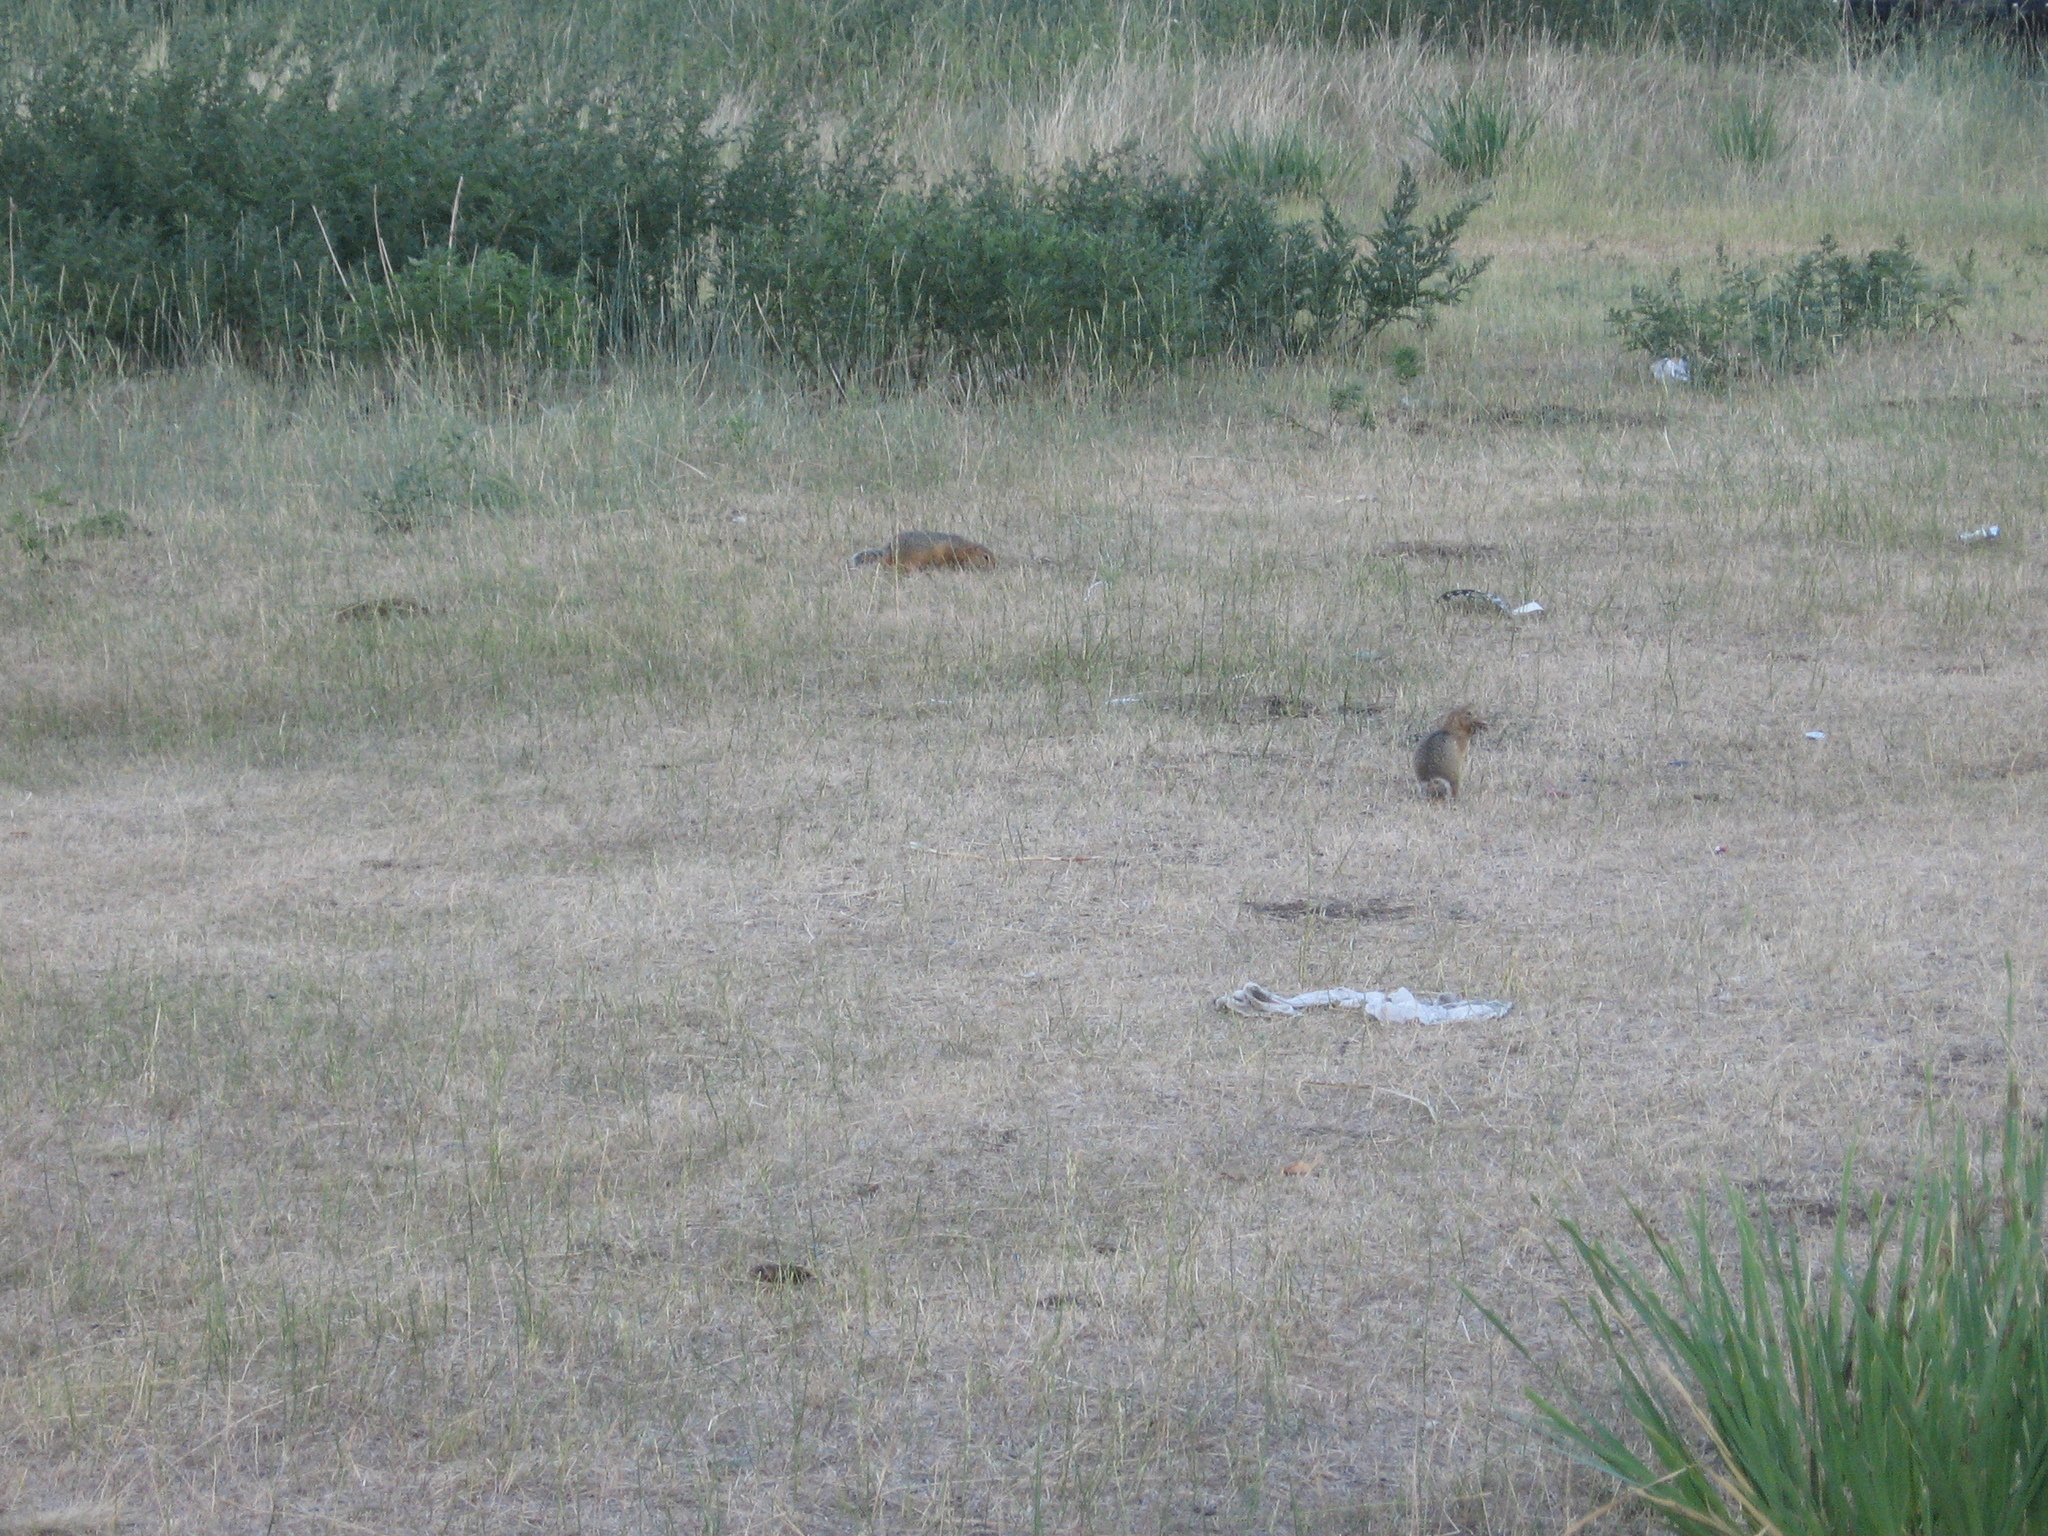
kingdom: Animalia
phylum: Chordata
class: Mammalia
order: Rodentia
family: Sciuridae
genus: Urocitellus
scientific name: Urocitellus undulatus
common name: Long-tailed ground squirrel
